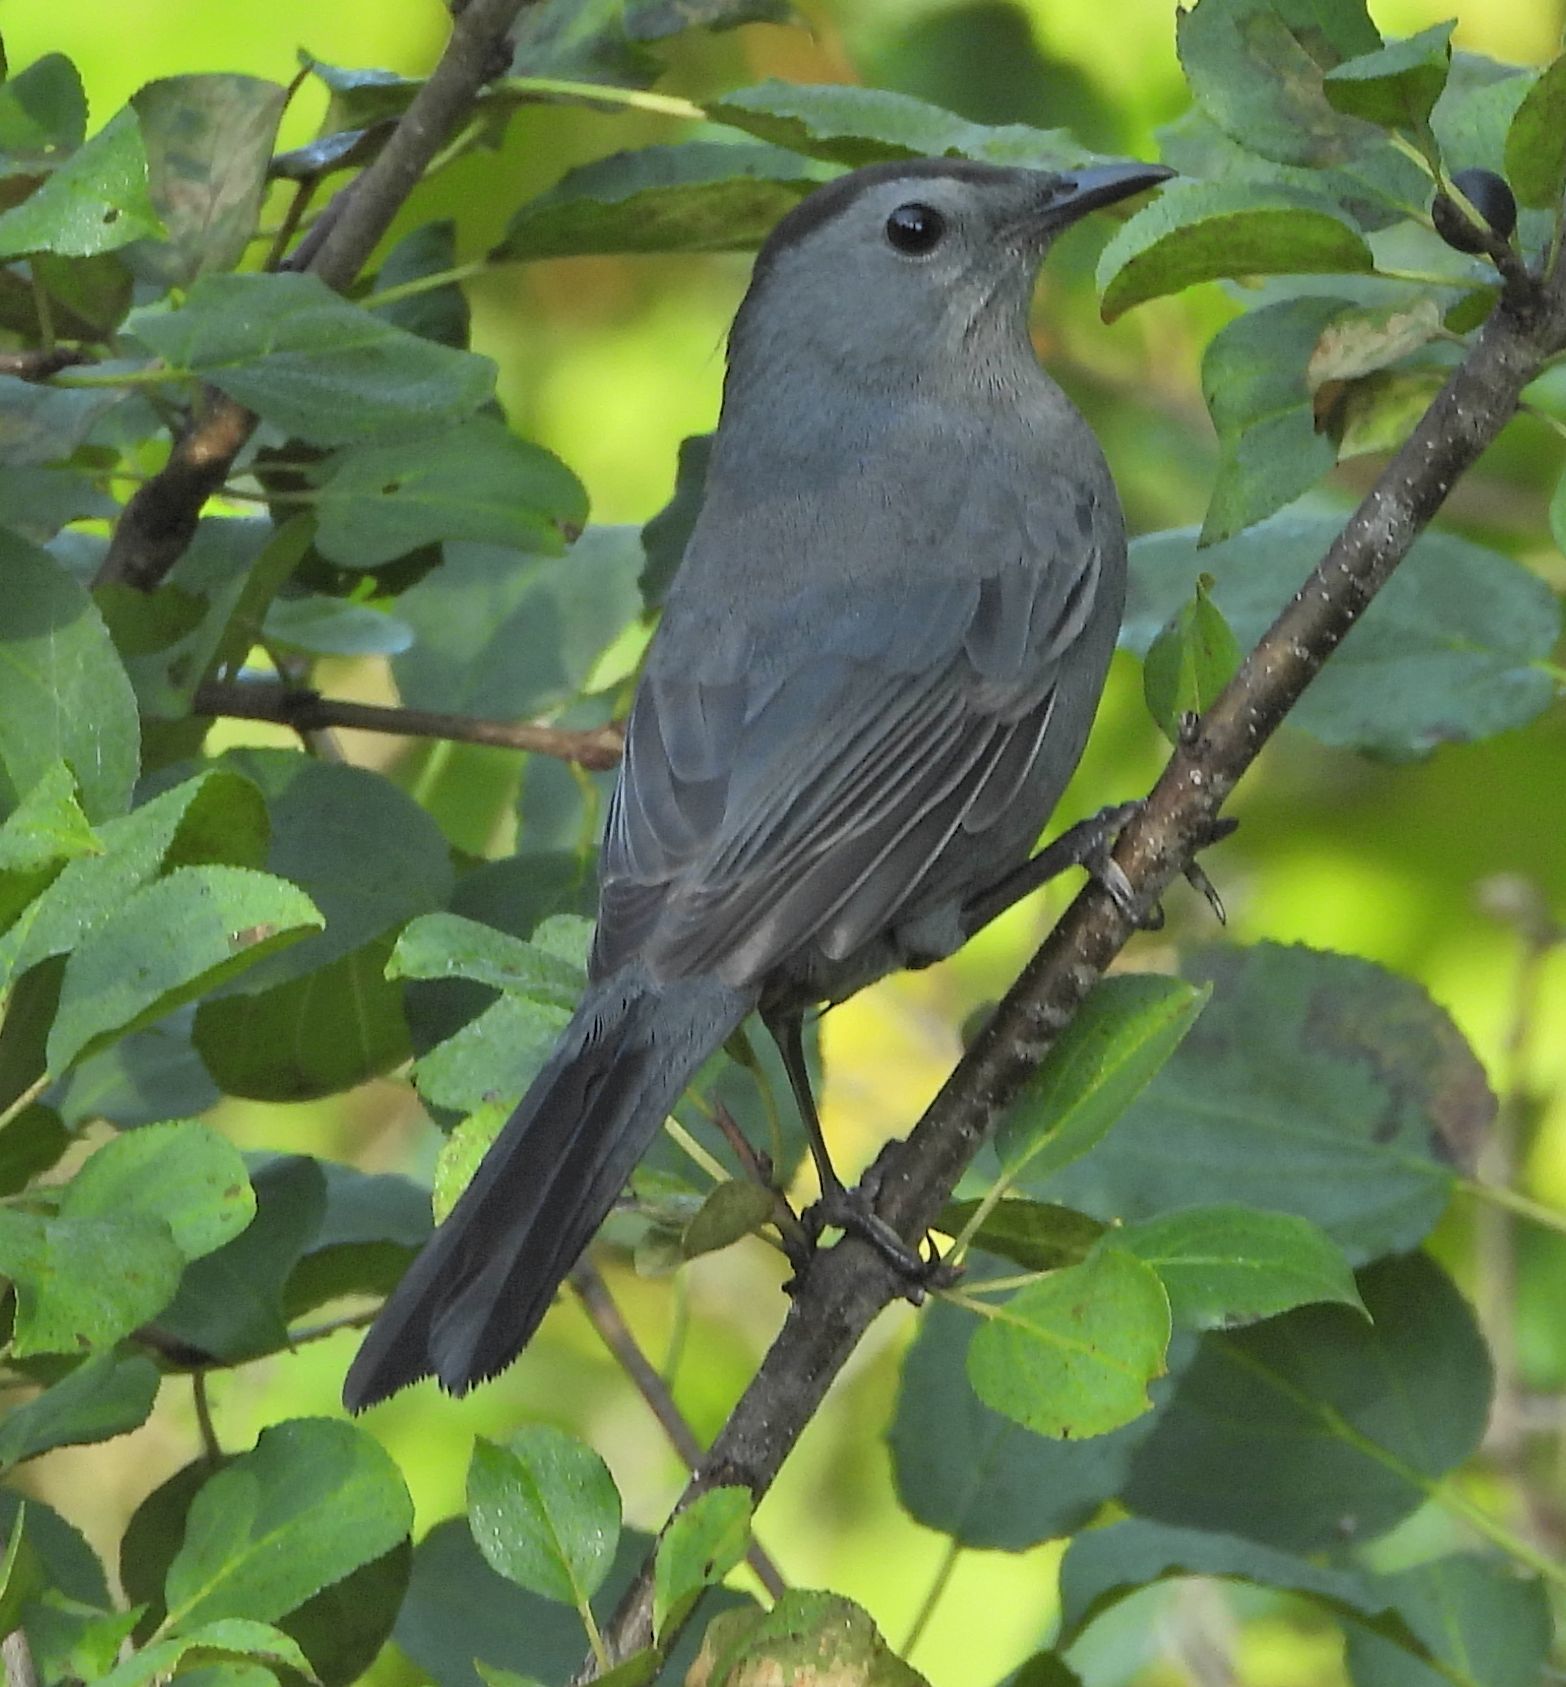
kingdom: Animalia
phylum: Chordata
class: Aves
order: Passeriformes
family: Mimidae
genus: Dumetella
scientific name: Dumetella carolinensis
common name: Gray catbird
